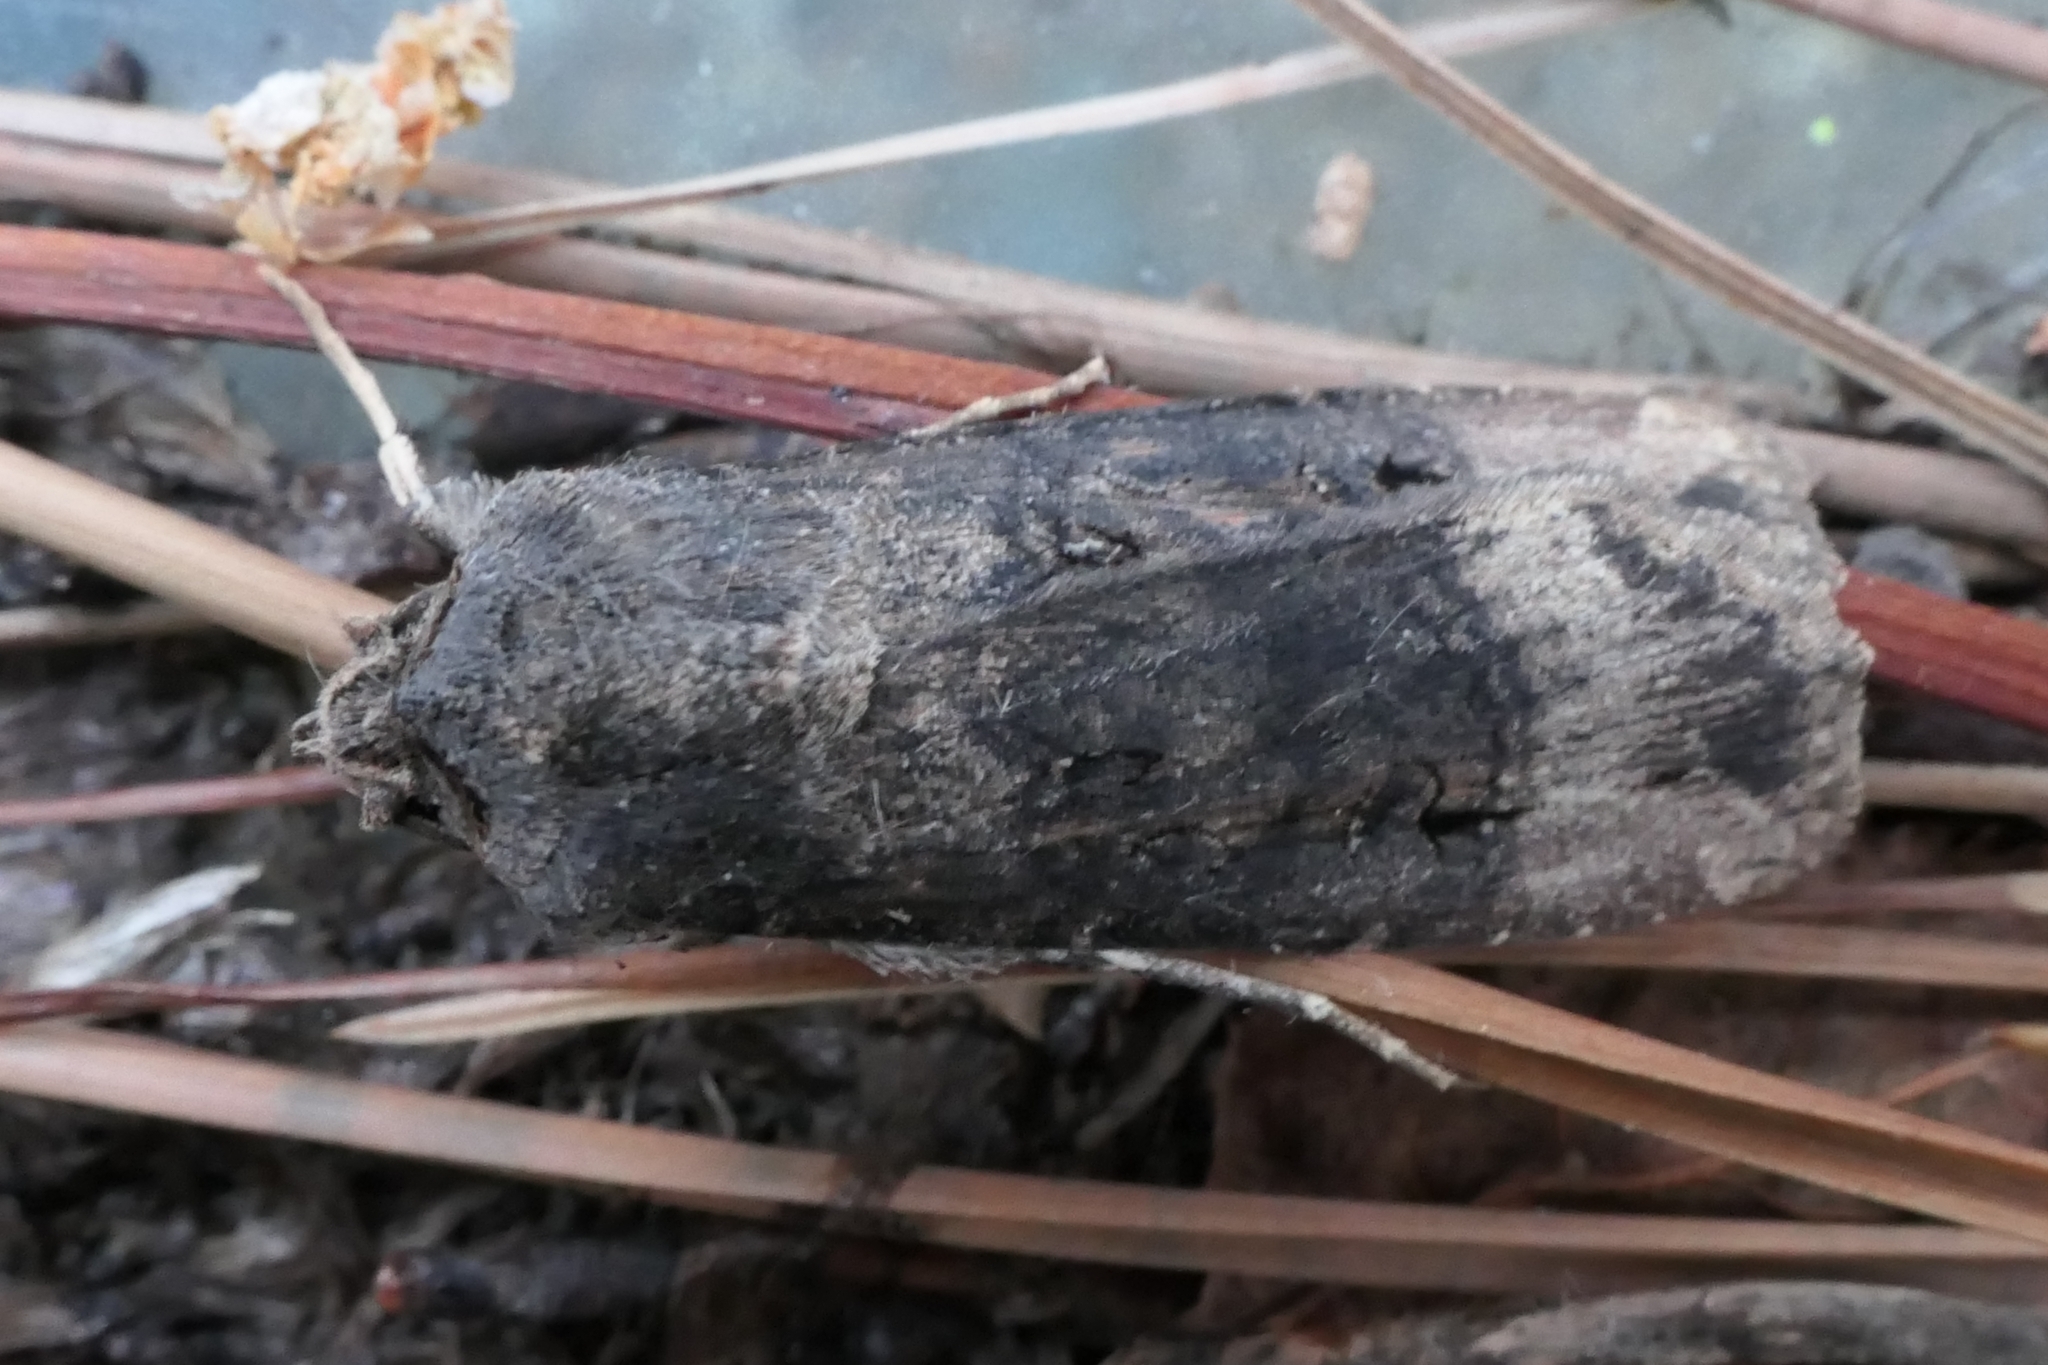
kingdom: Animalia
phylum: Arthropoda
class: Insecta
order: Lepidoptera
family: Noctuidae
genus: Agrotis
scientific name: Agrotis ipsilon
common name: Dark sword-grass
